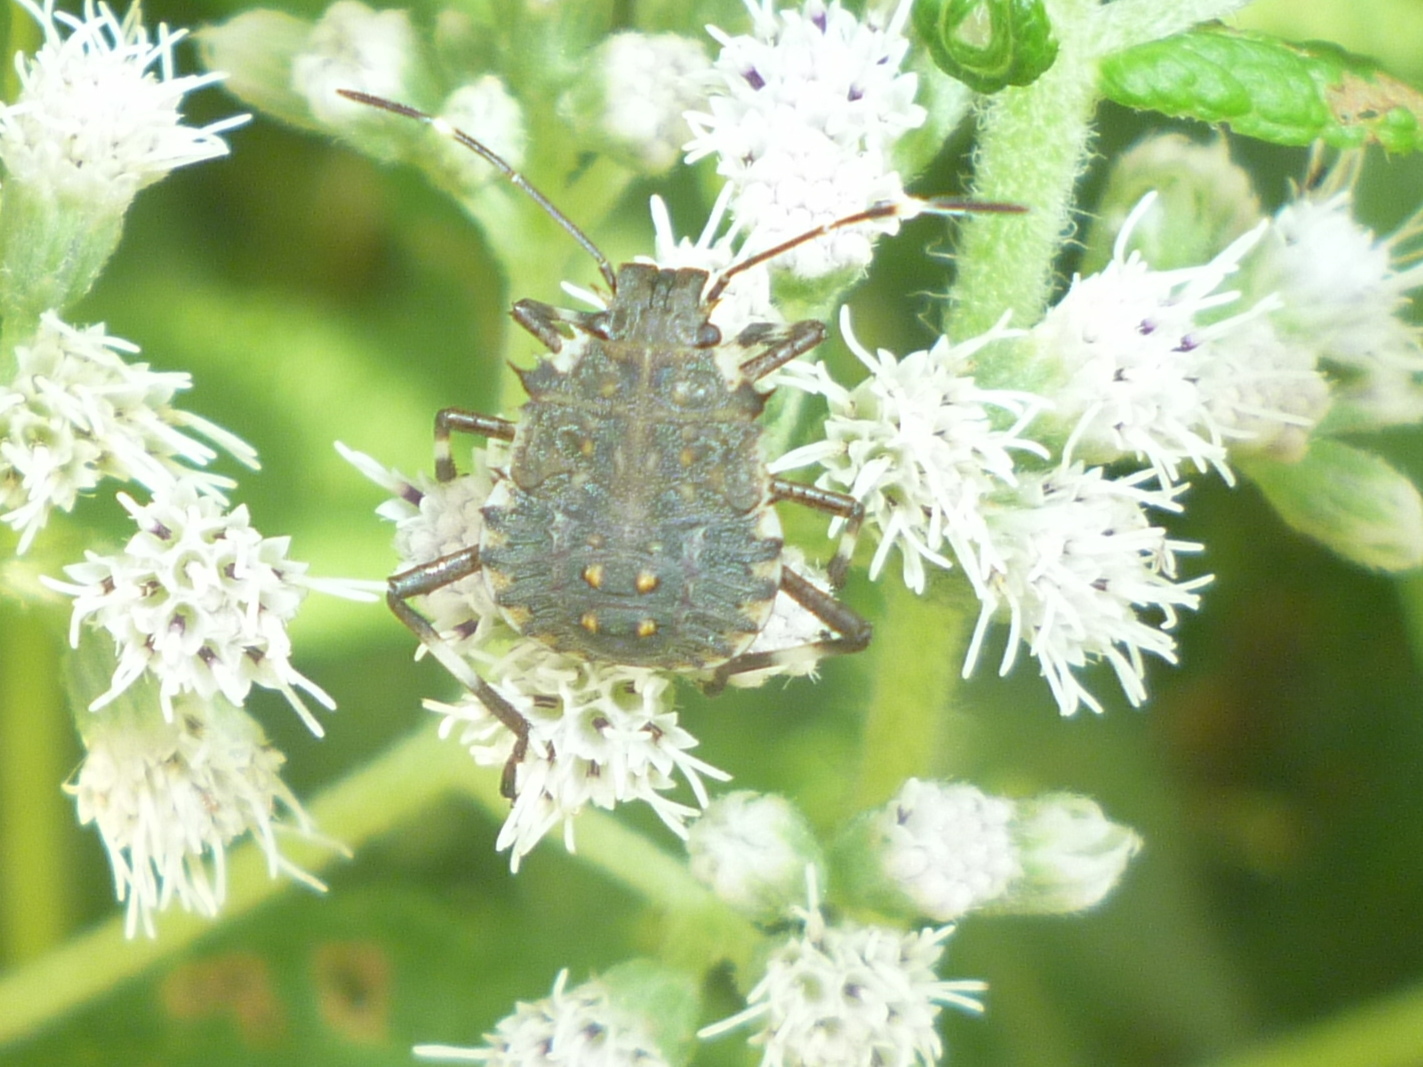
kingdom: Animalia
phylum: Arthropoda
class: Insecta
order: Hemiptera
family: Pentatomidae
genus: Halyomorpha
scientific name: Halyomorpha halys
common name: Brown marmorated stink bug
